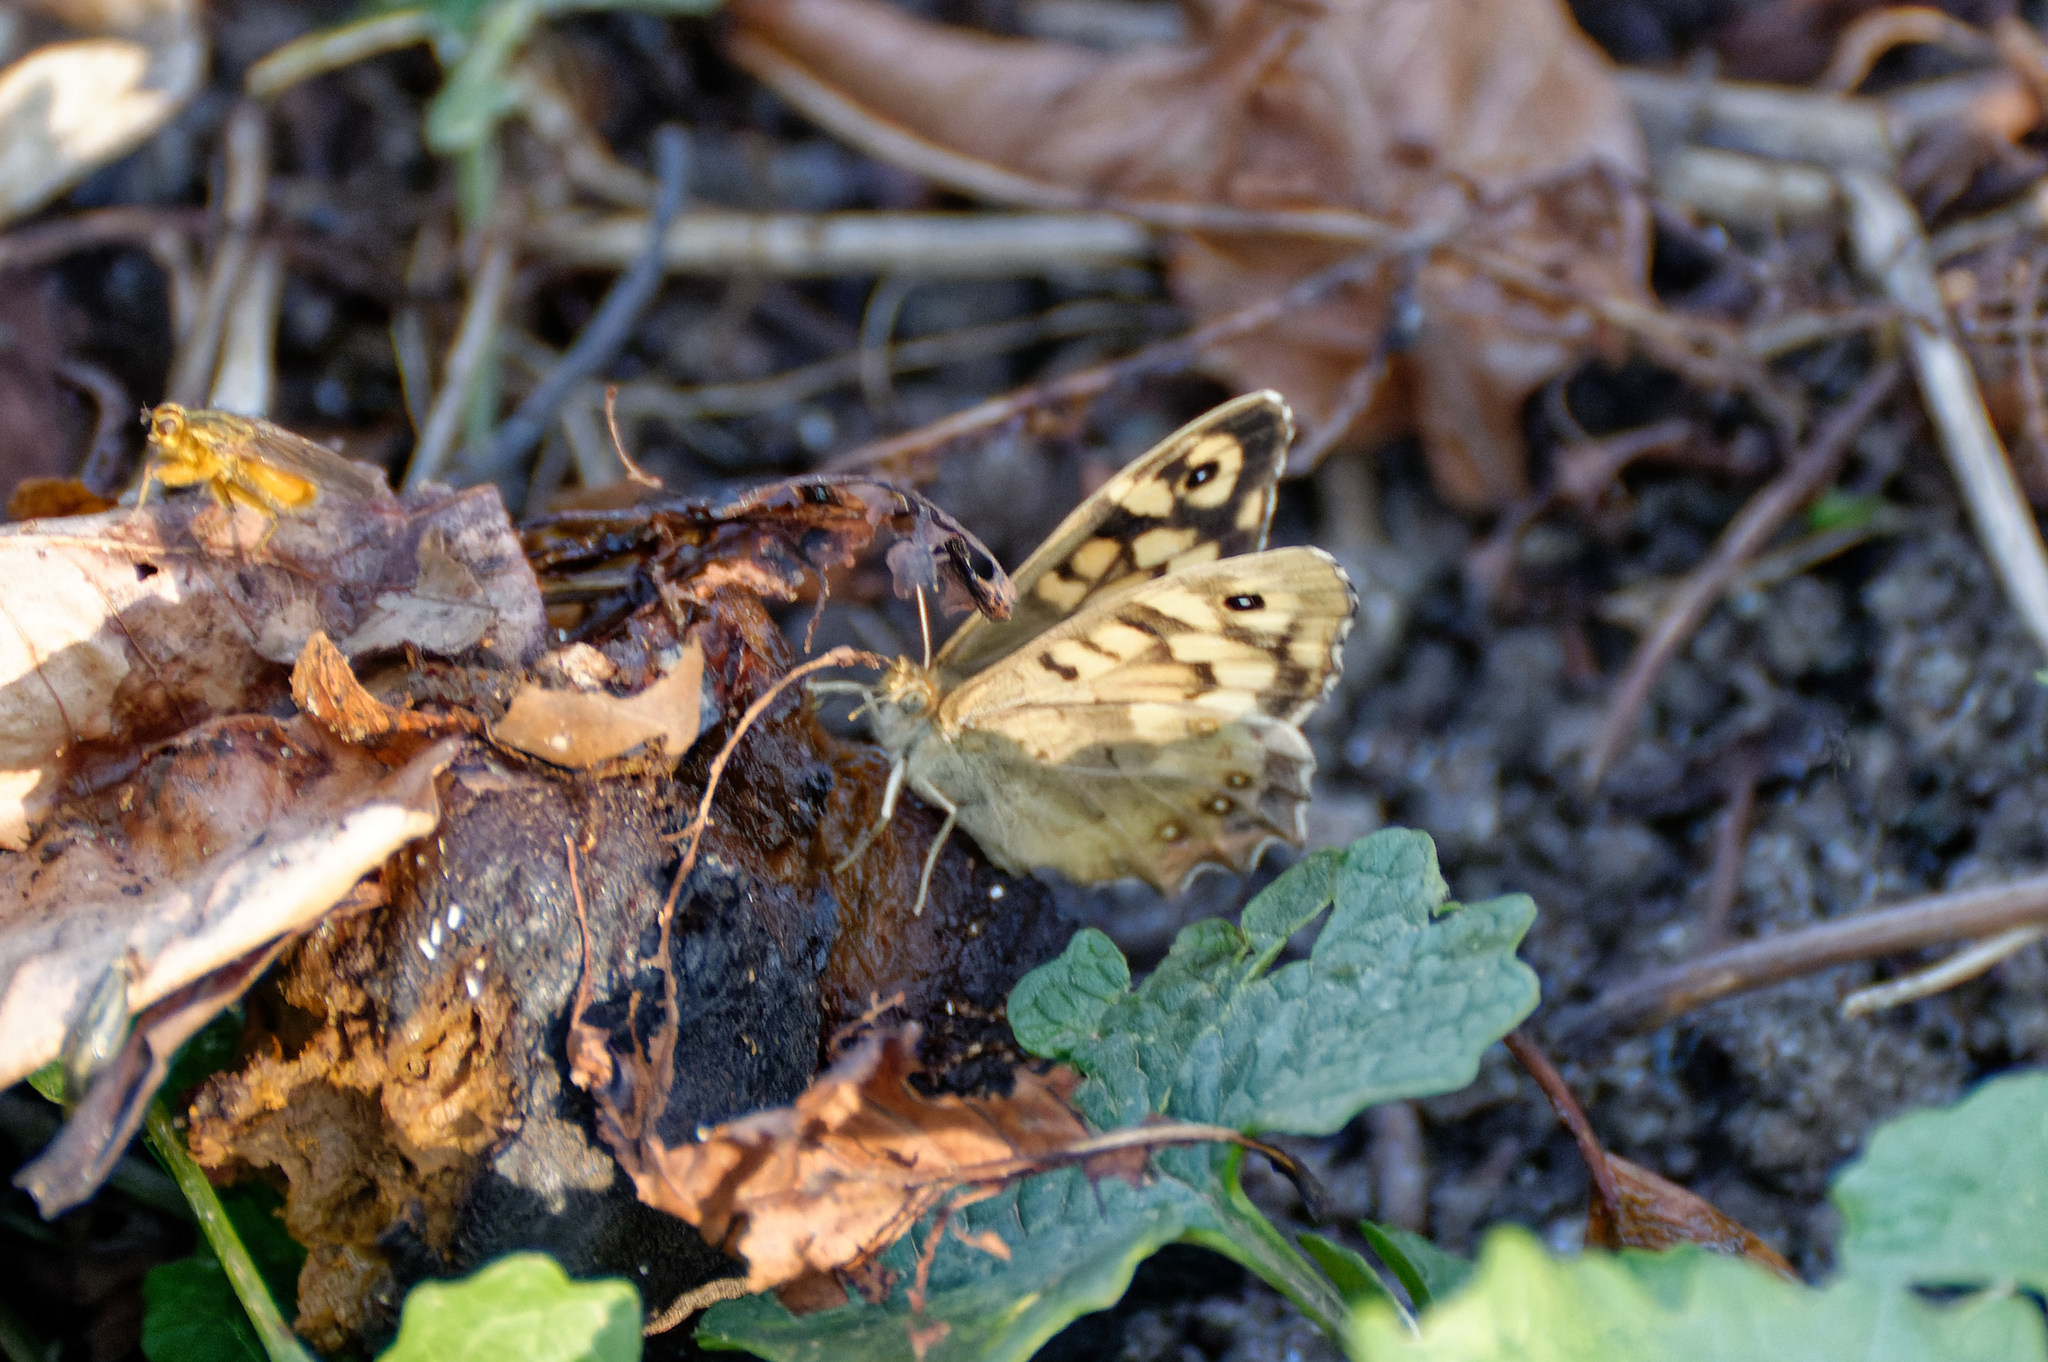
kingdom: Animalia
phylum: Arthropoda
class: Insecta
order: Lepidoptera
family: Nymphalidae
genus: Pararge
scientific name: Pararge aegeria
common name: Speckled wood
